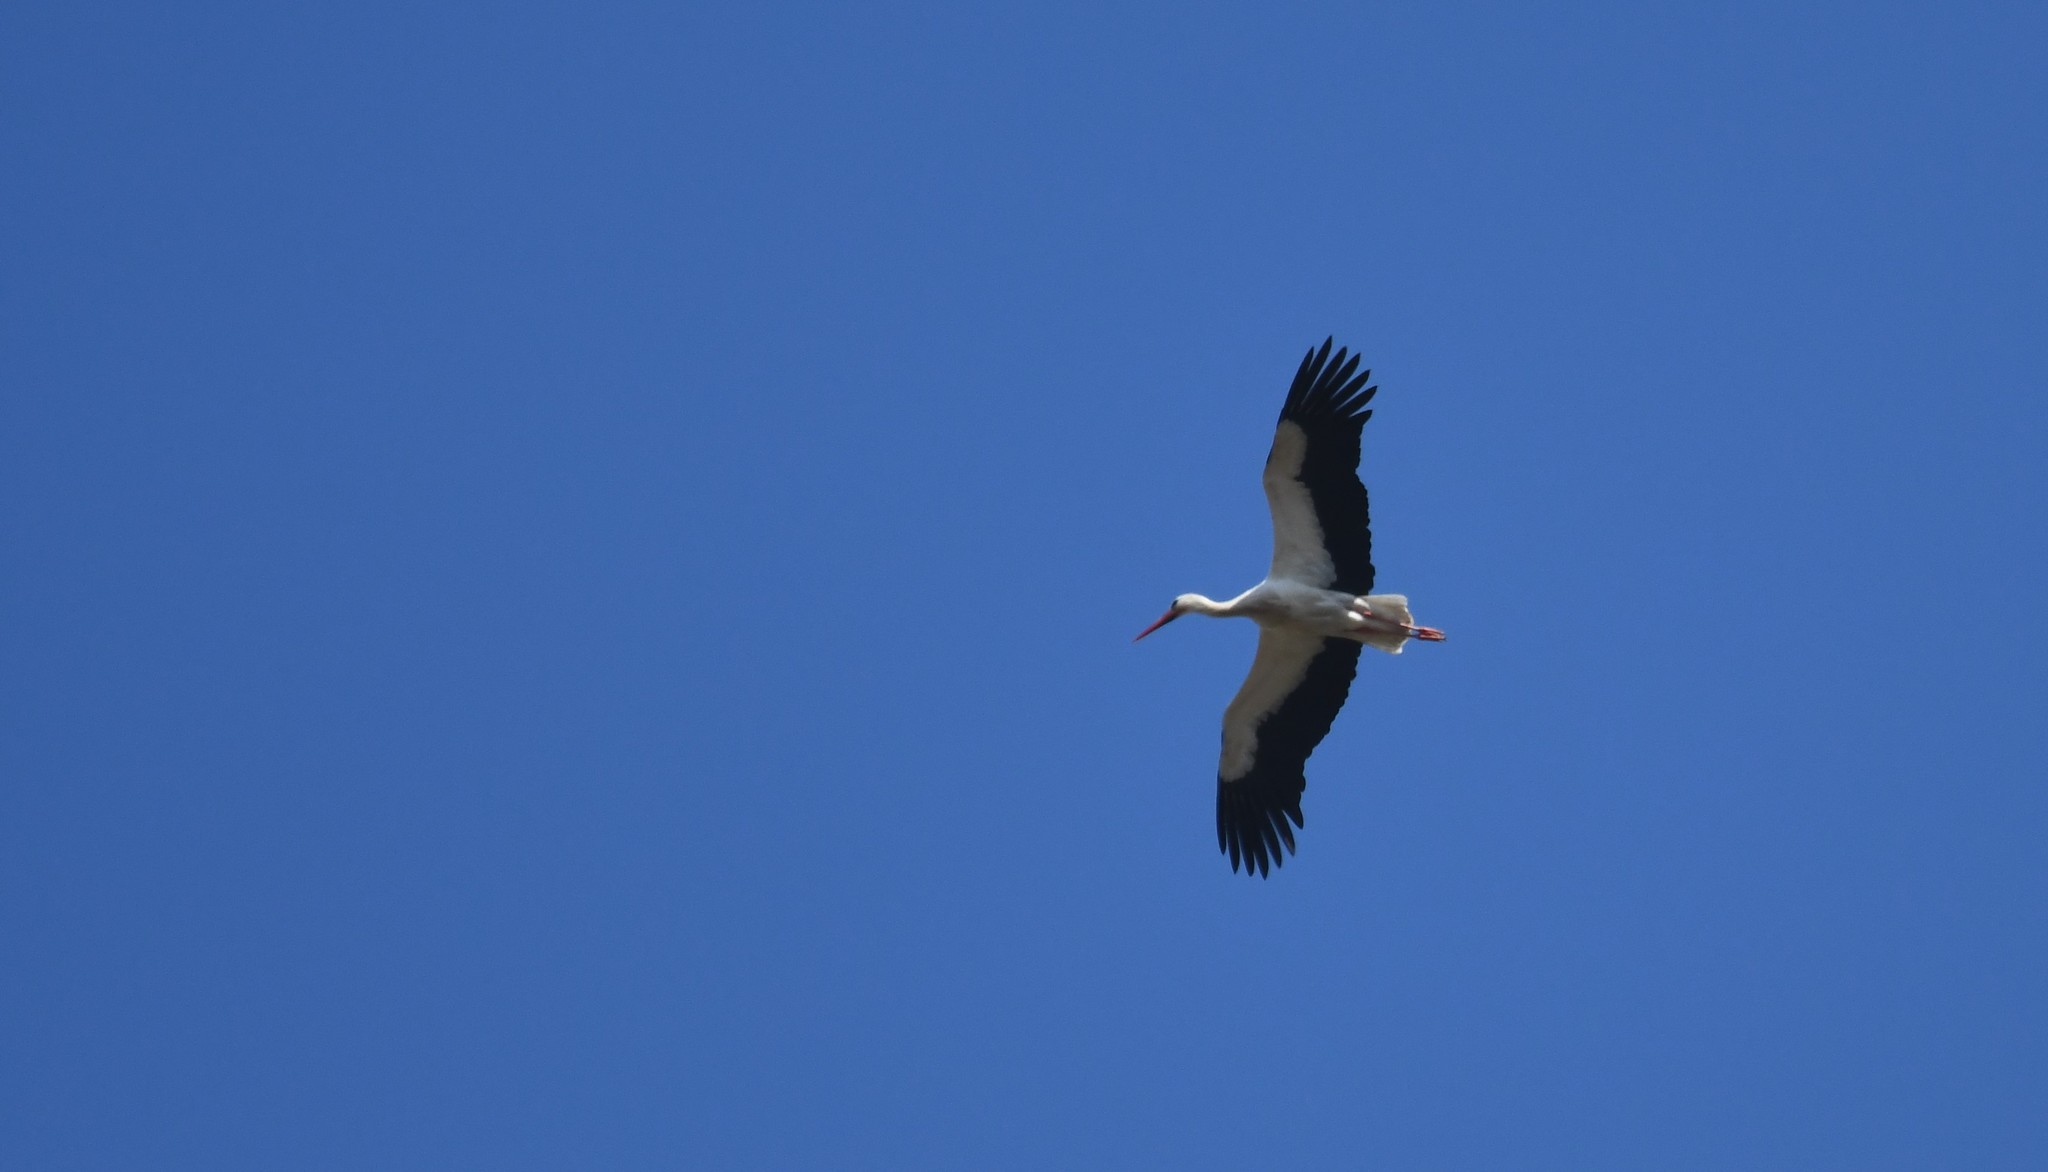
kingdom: Animalia
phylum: Chordata
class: Aves
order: Ciconiiformes
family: Ciconiidae
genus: Ciconia
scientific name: Ciconia ciconia
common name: White stork
